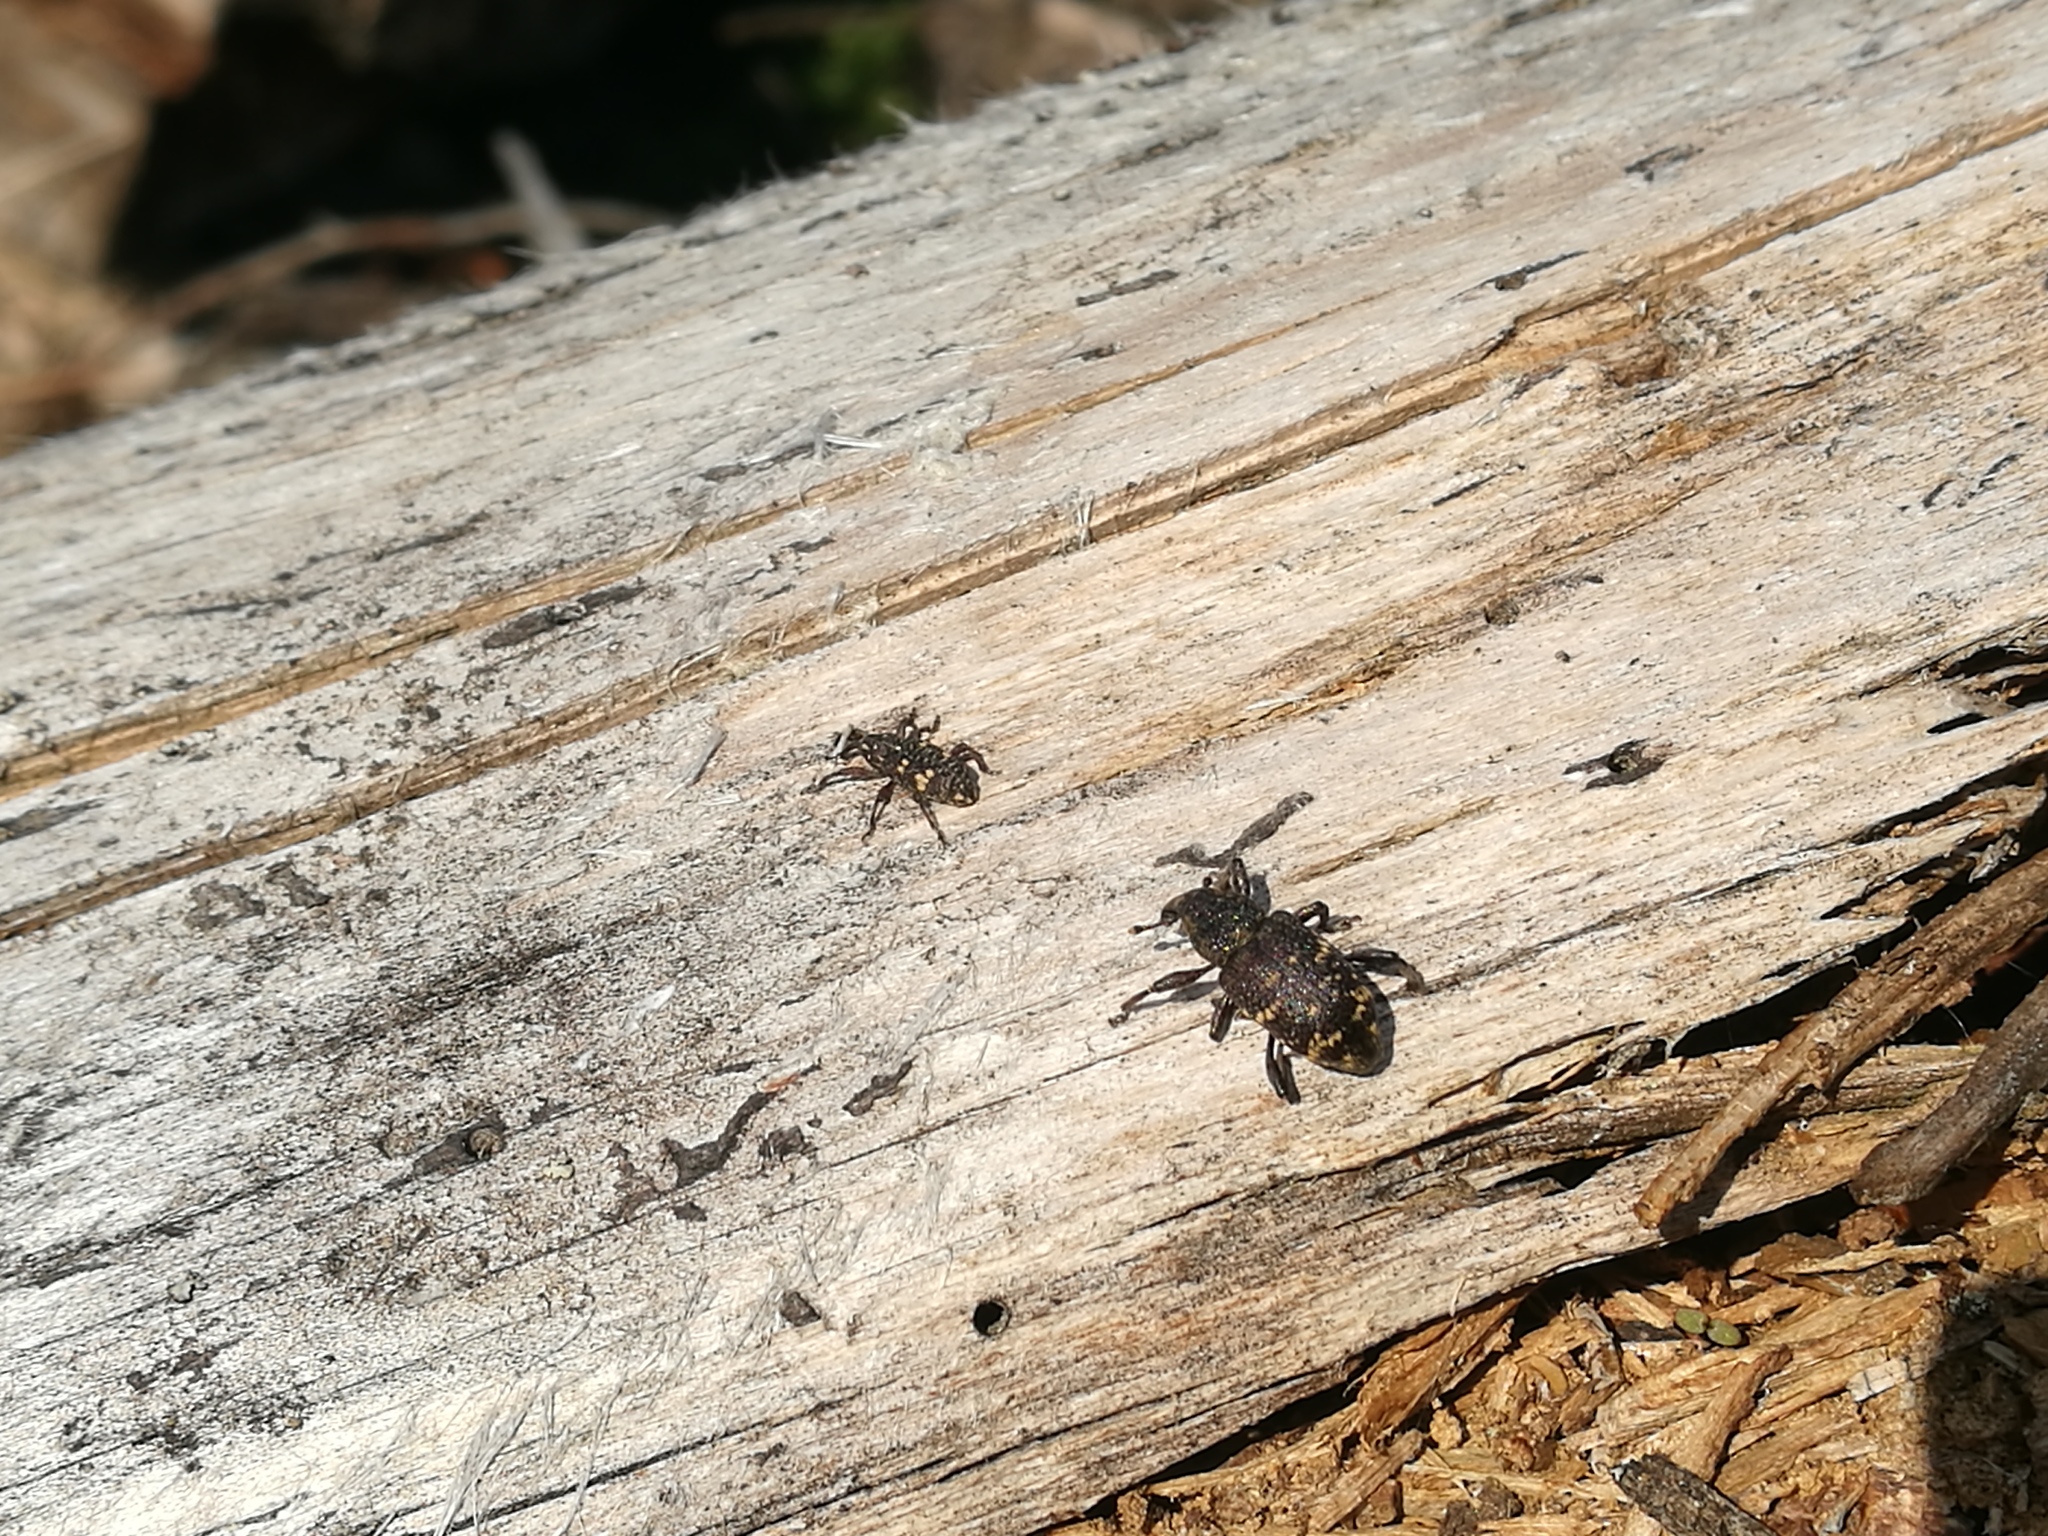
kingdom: Animalia
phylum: Arthropoda
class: Insecta
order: Coleoptera
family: Curculionidae
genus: Hylobius
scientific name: Hylobius abietis
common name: Large pine weevil
